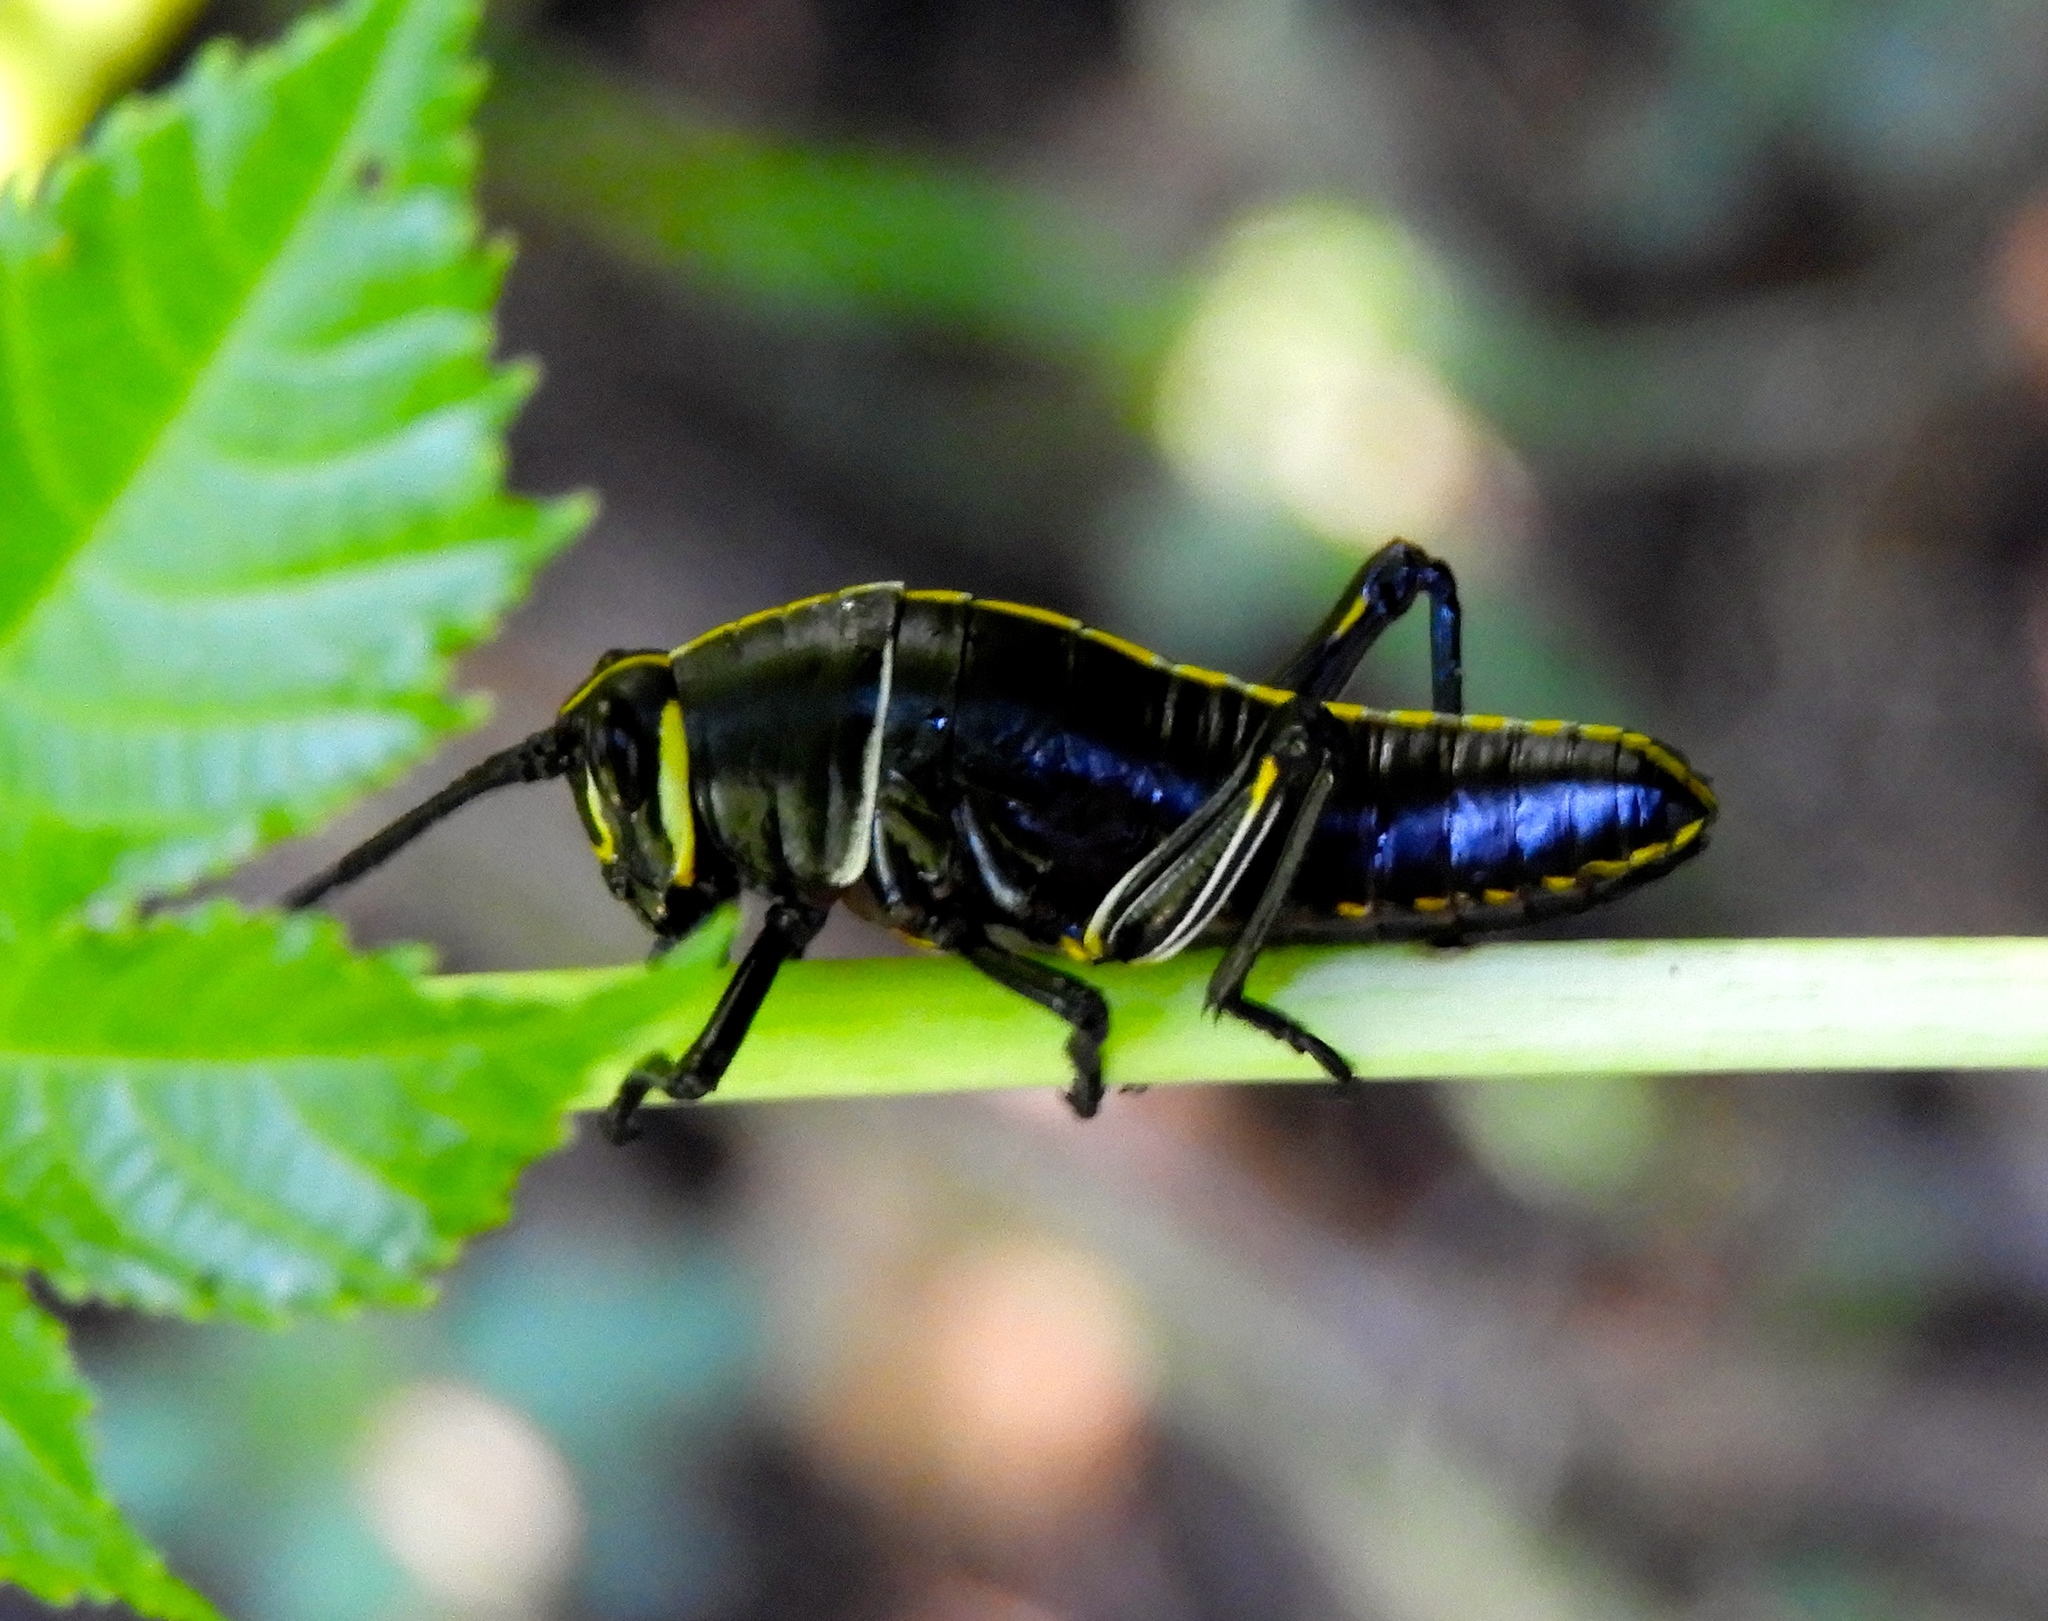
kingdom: Animalia
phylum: Arthropoda
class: Insecta
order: Orthoptera
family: Romaleidae
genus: Romalea
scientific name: Romalea
